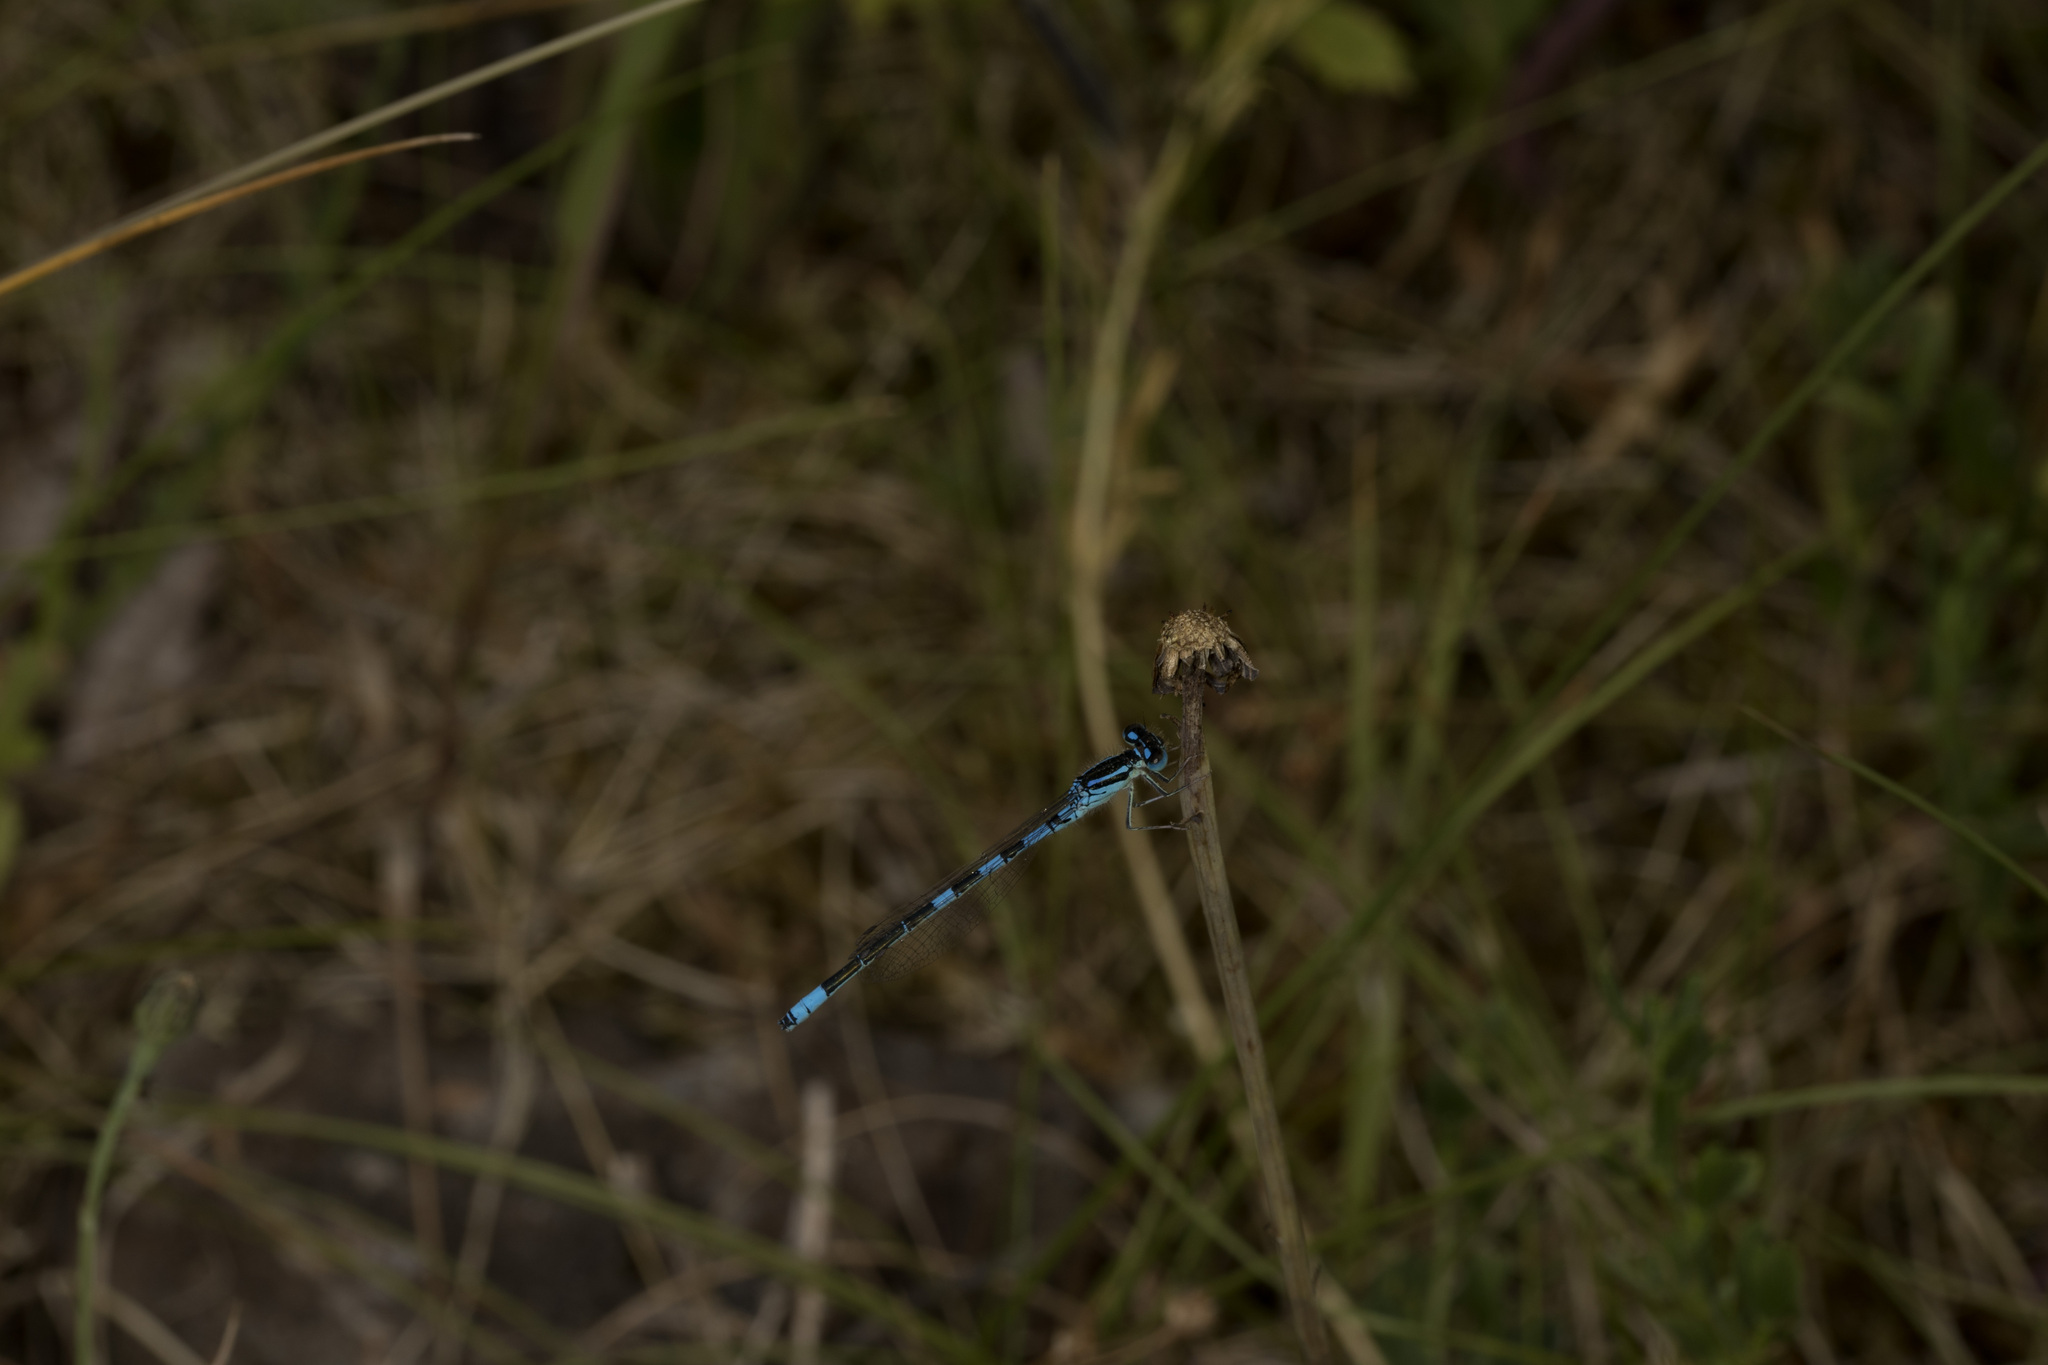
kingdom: Animalia
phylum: Arthropoda
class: Insecta
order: Odonata
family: Coenagrionidae
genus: Coenagrion
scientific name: Coenagrion scitulum
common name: Dainty bluet
